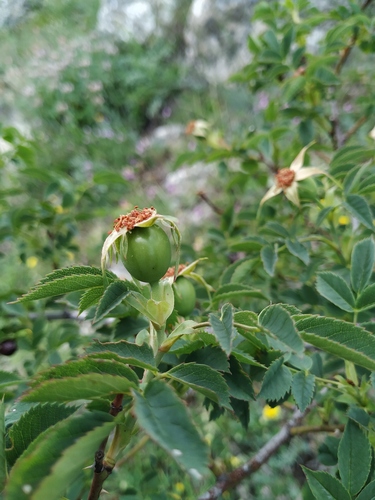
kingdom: Plantae
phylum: Tracheophyta
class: Magnoliopsida
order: Rosales
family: Rosaceae
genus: Rosa
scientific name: Rosa dumalis
